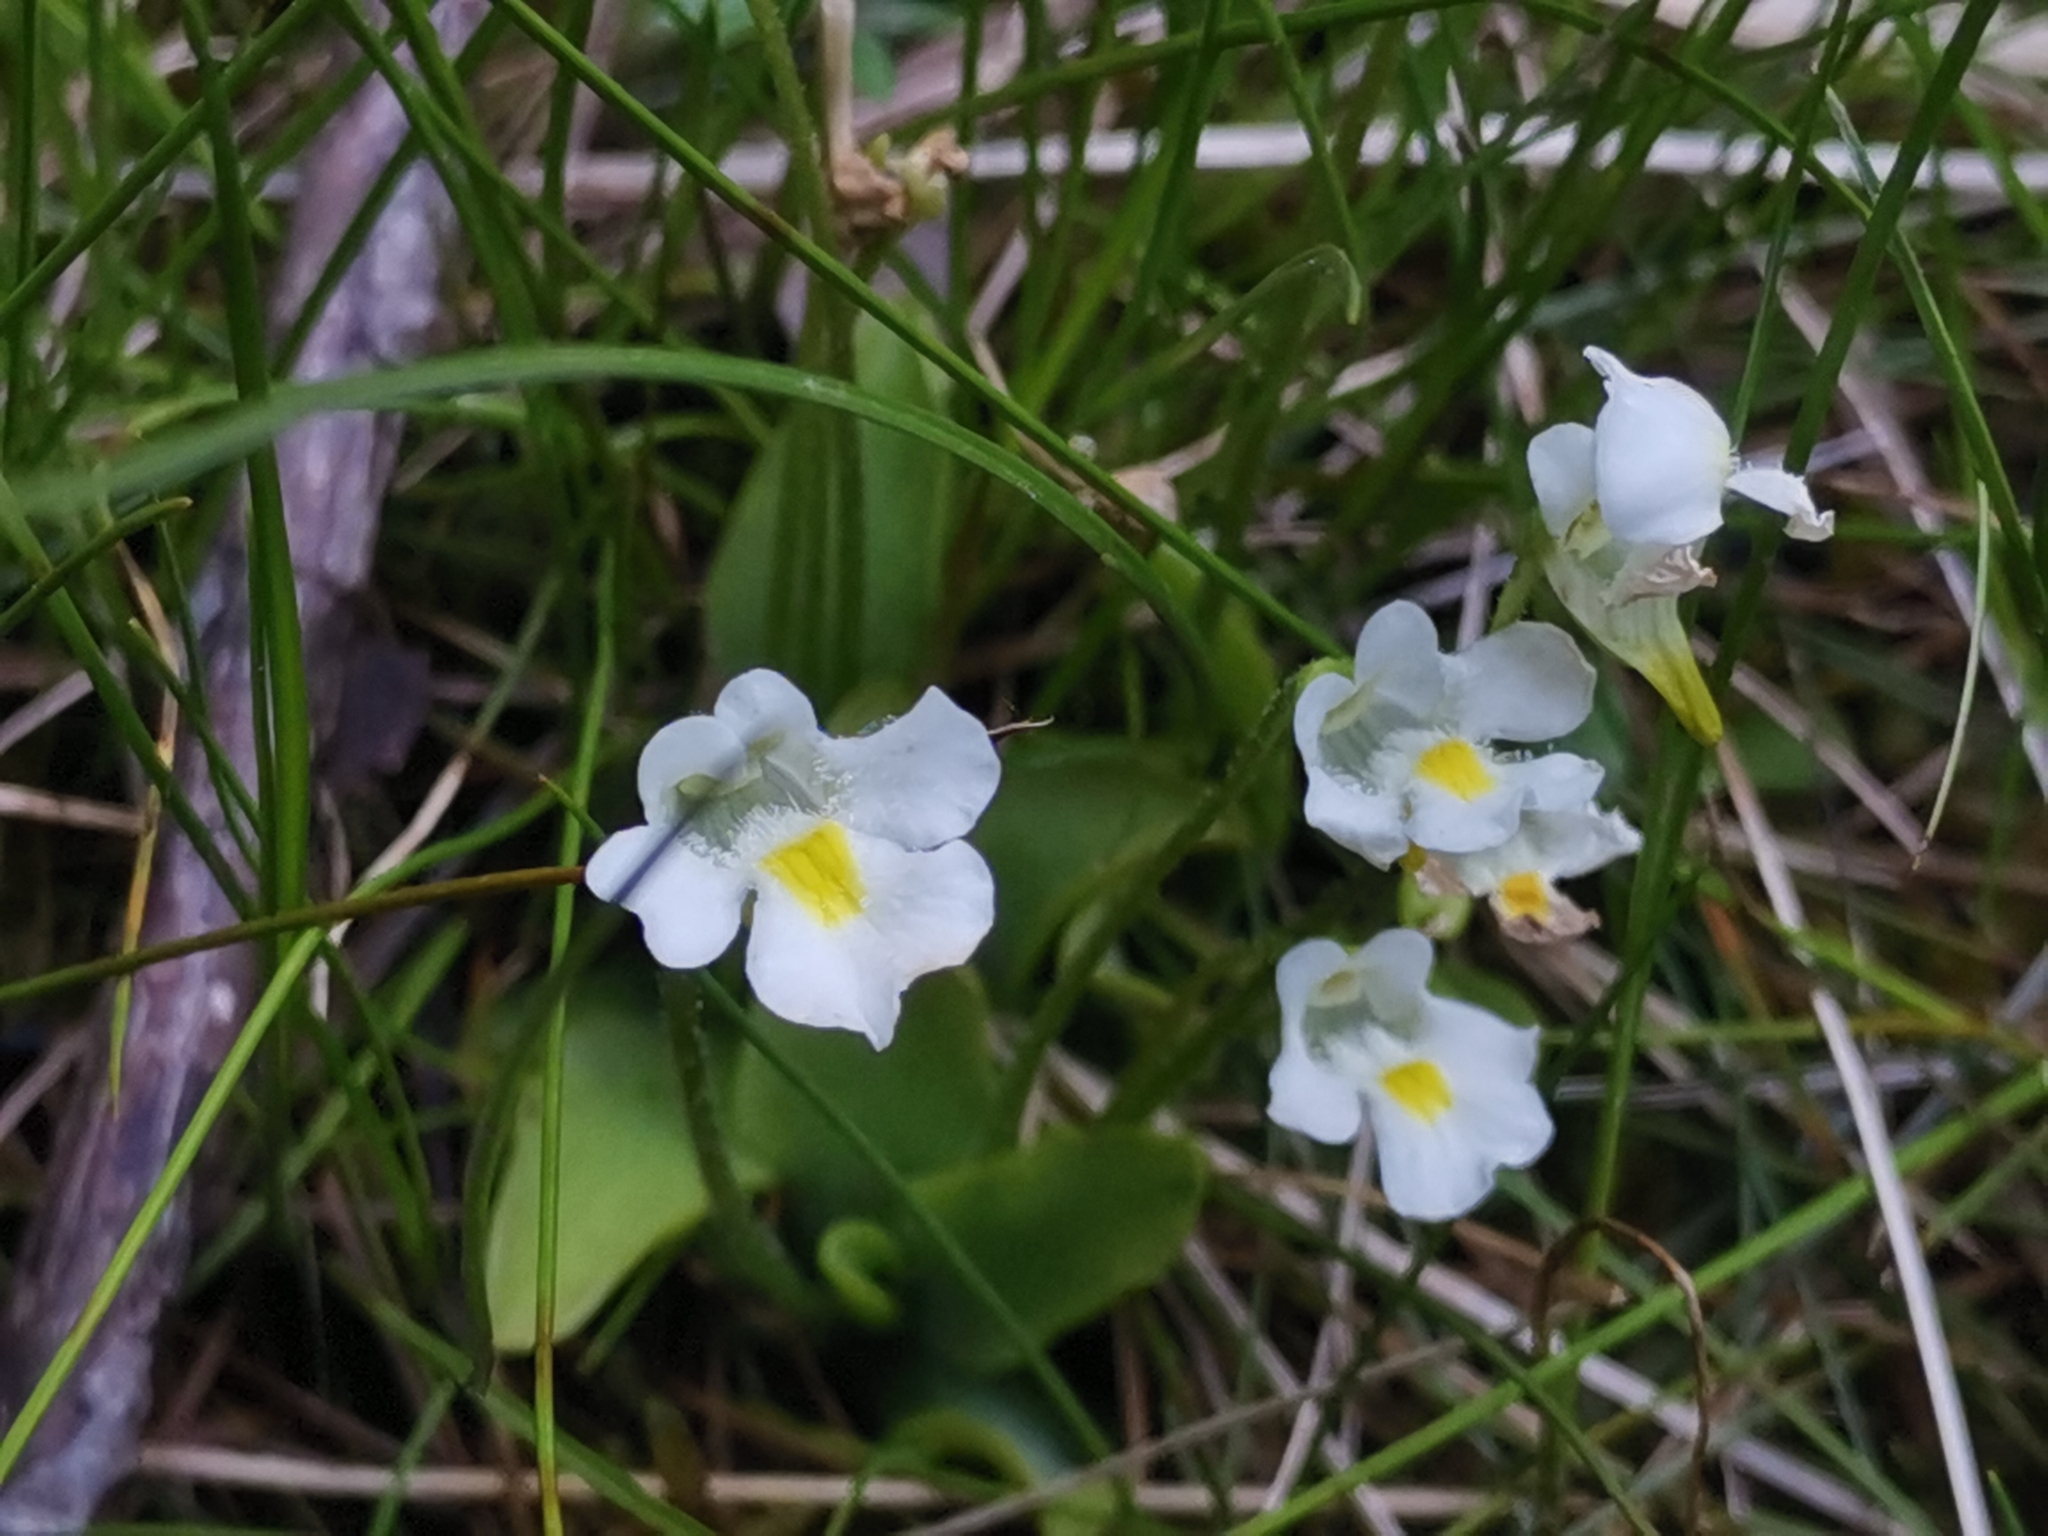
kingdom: Plantae
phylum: Tracheophyta
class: Magnoliopsida
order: Lamiales
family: Lentibulariaceae
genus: Pinguicula
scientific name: Pinguicula alpina
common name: Alpine butterwort
